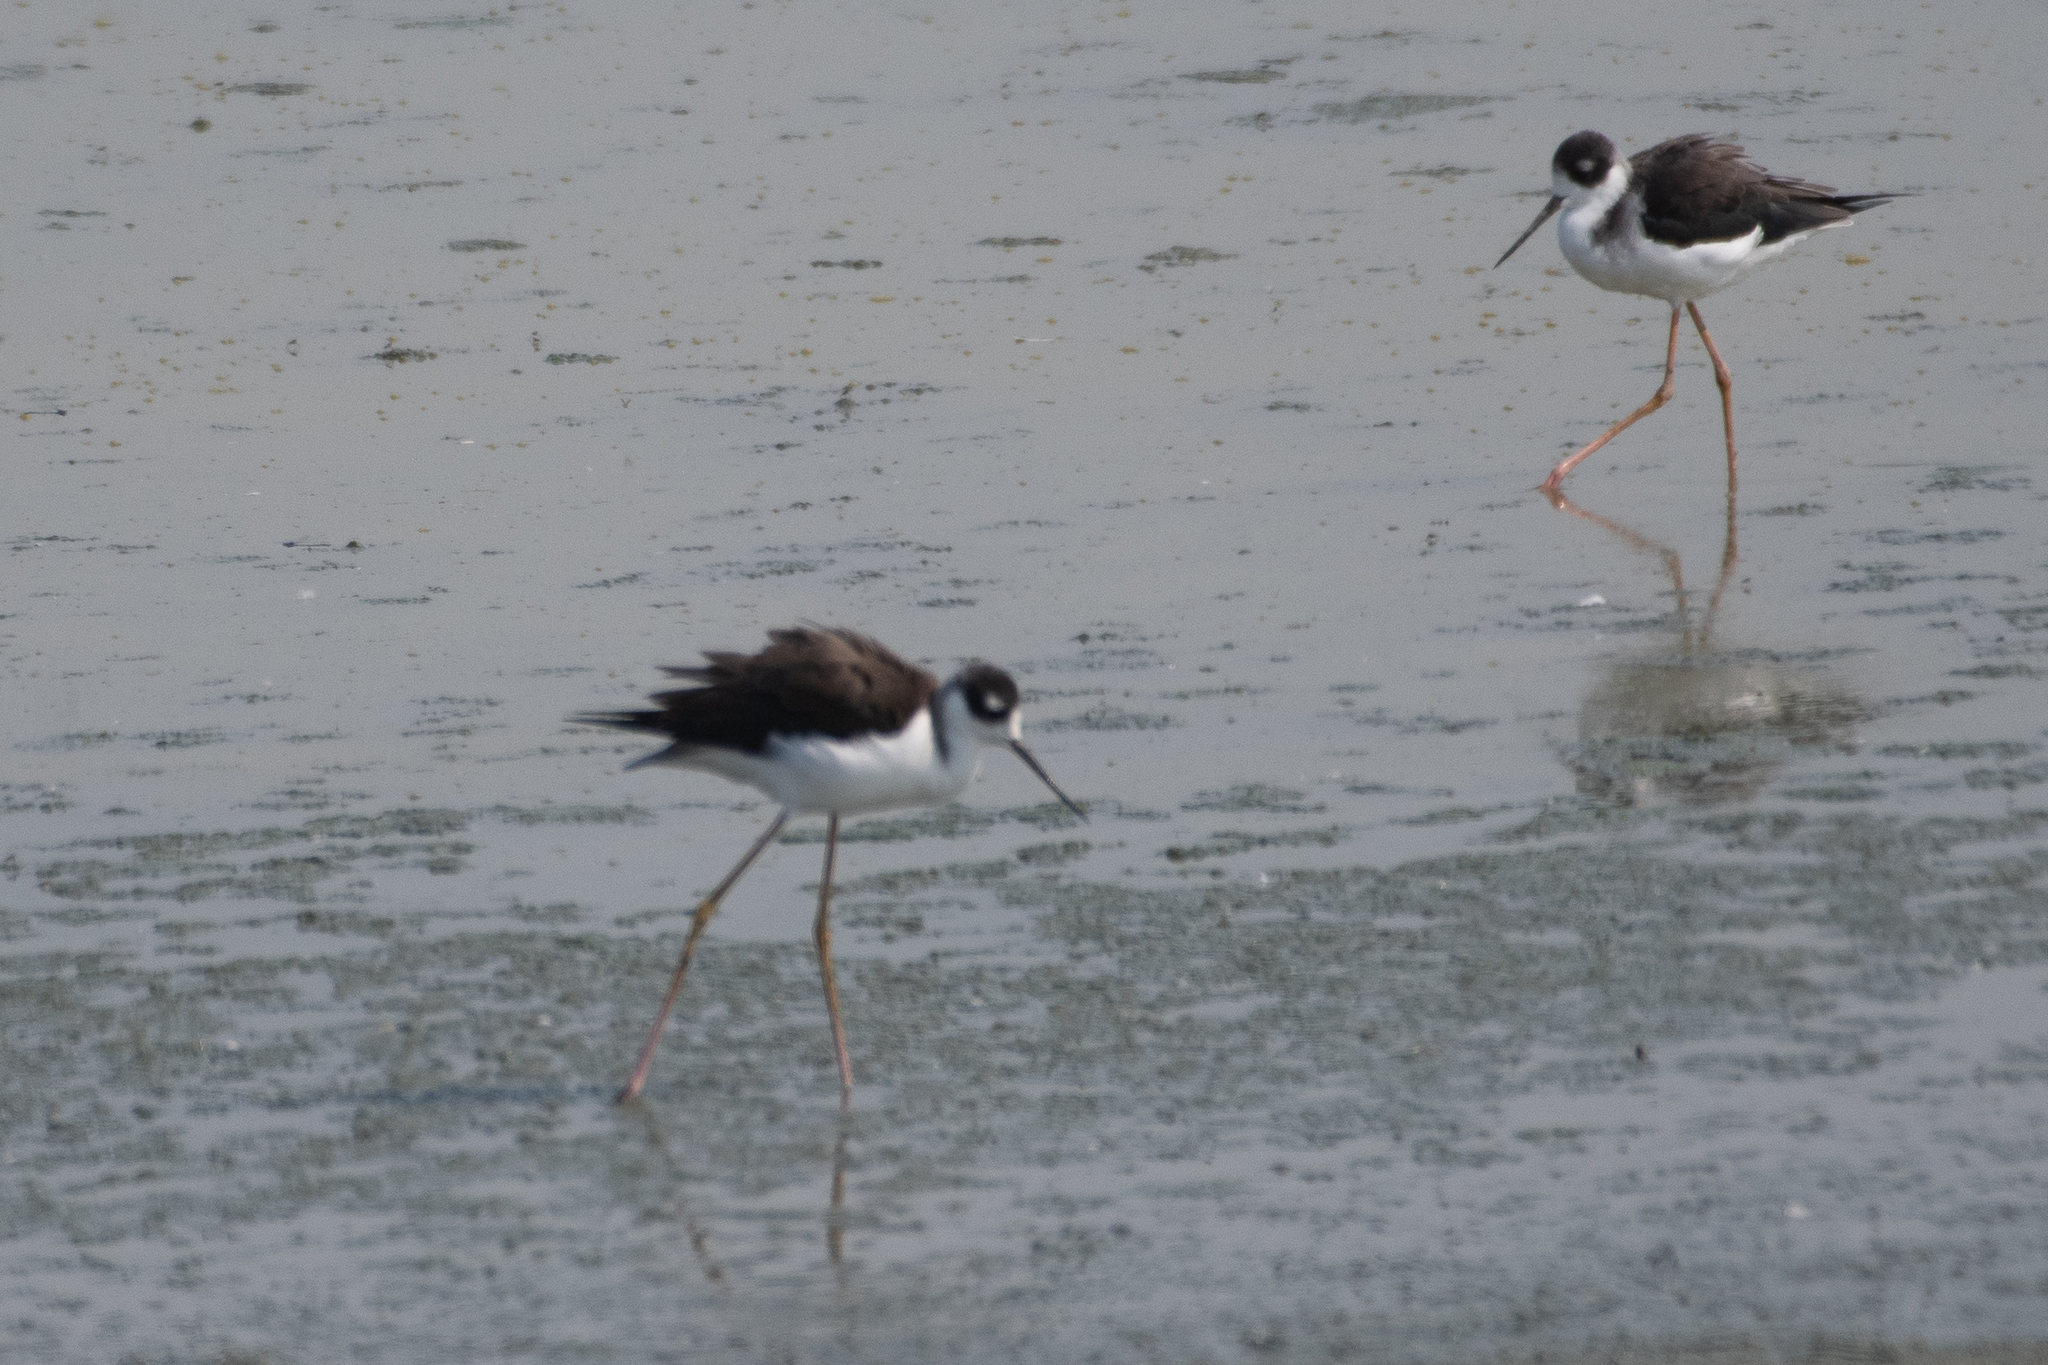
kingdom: Animalia
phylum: Chordata
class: Aves
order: Charadriiformes
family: Recurvirostridae
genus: Himantopus
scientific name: Himantopus mexicanus
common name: Black-necked stilt
